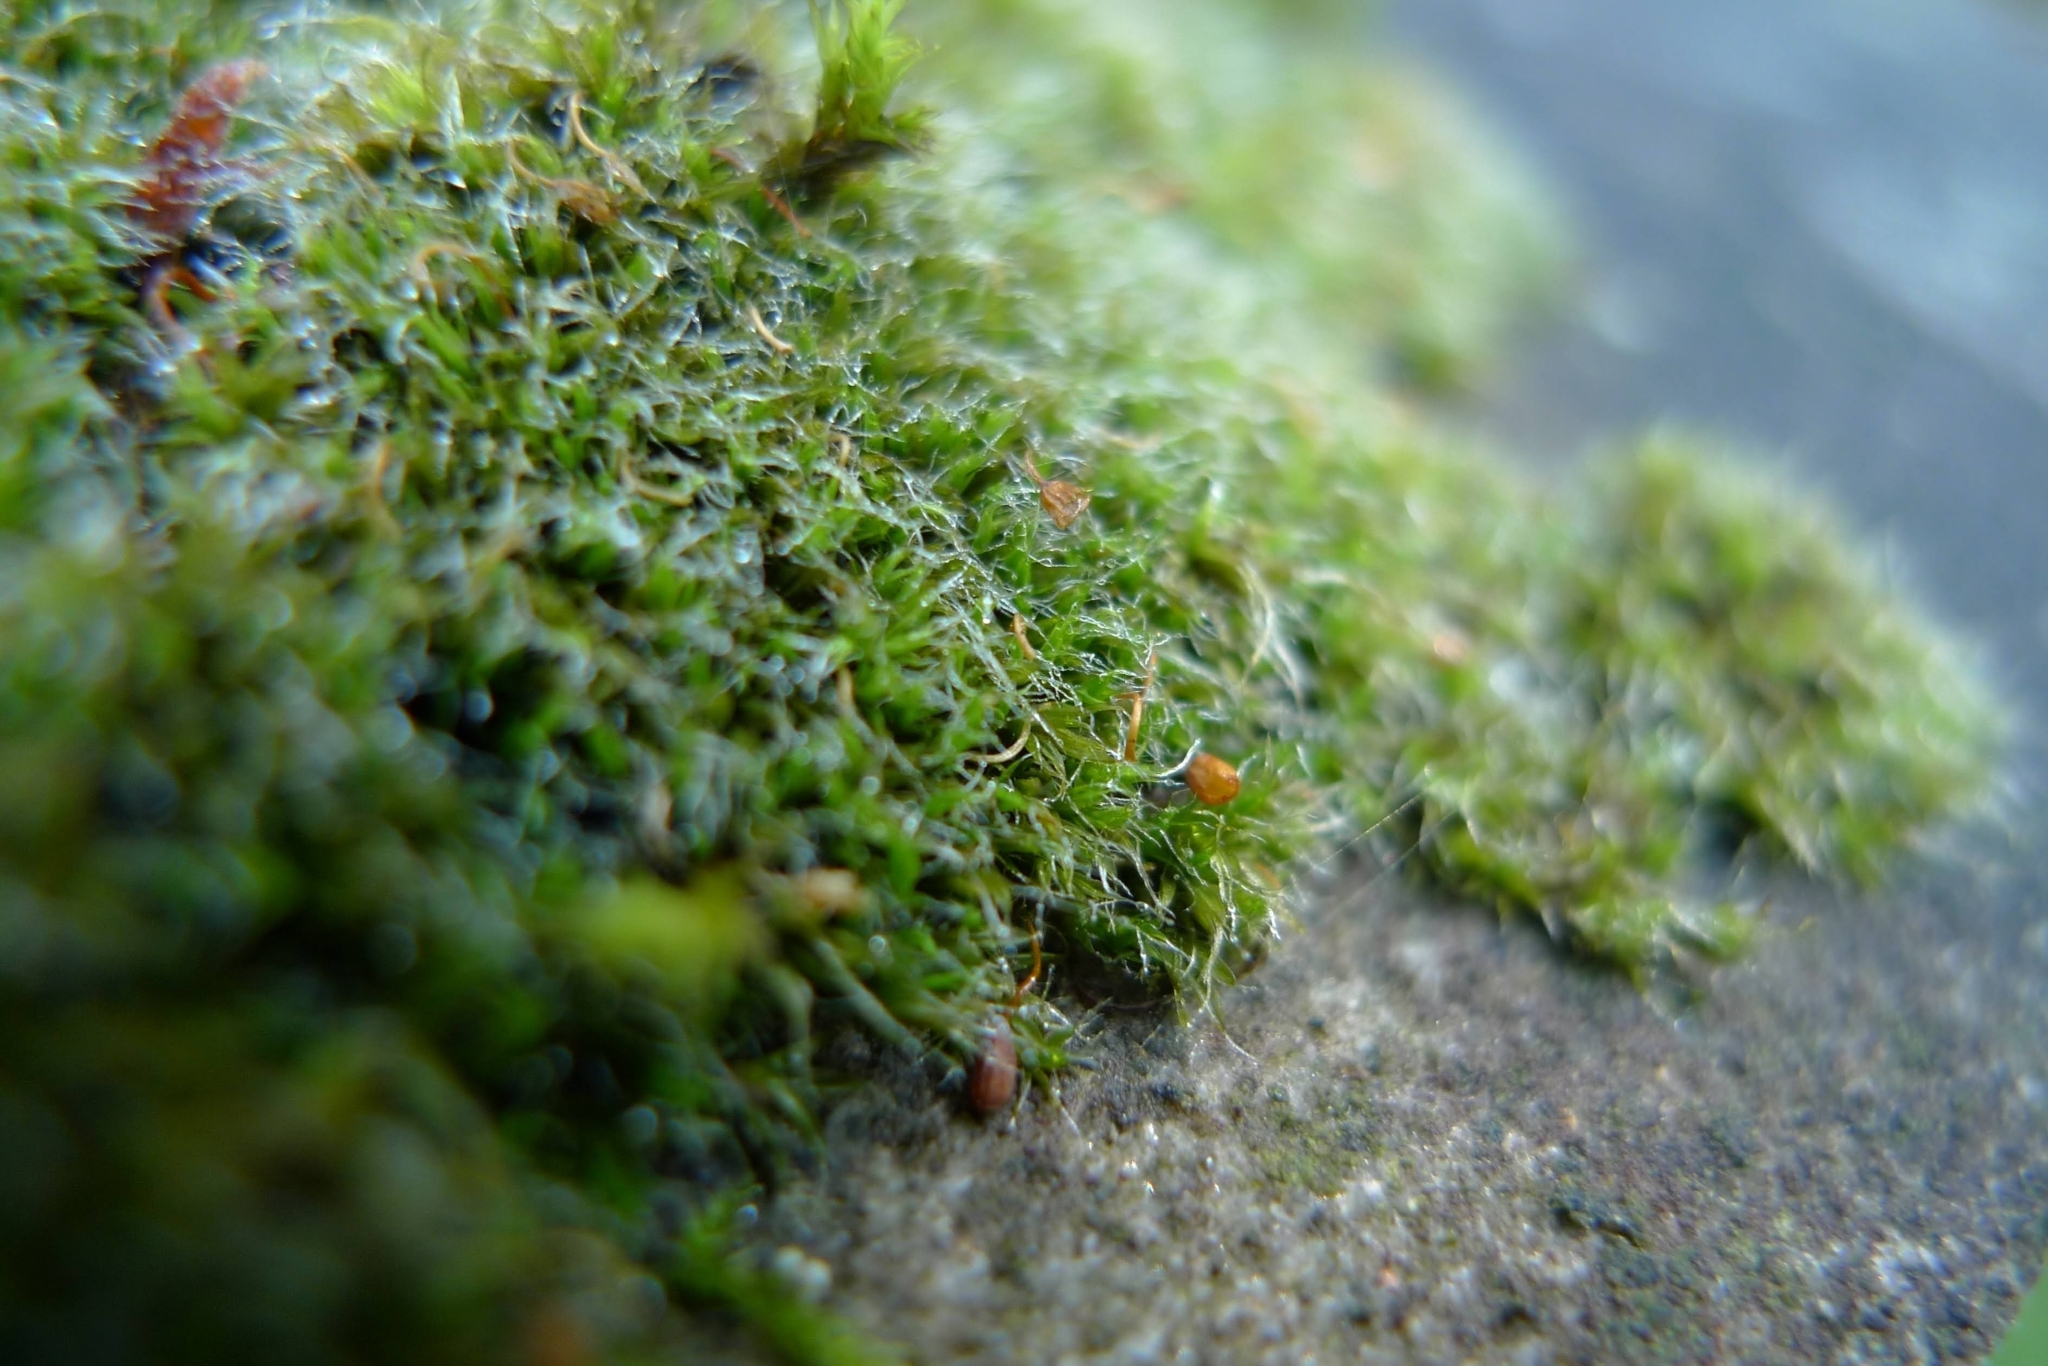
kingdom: Plantae
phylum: Bryophyta
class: Bryopsida
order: Grimmiales
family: Grimmiaceae
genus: Grimmia
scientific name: Grimmia pulvinata
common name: Grey-cushioned grimmia
